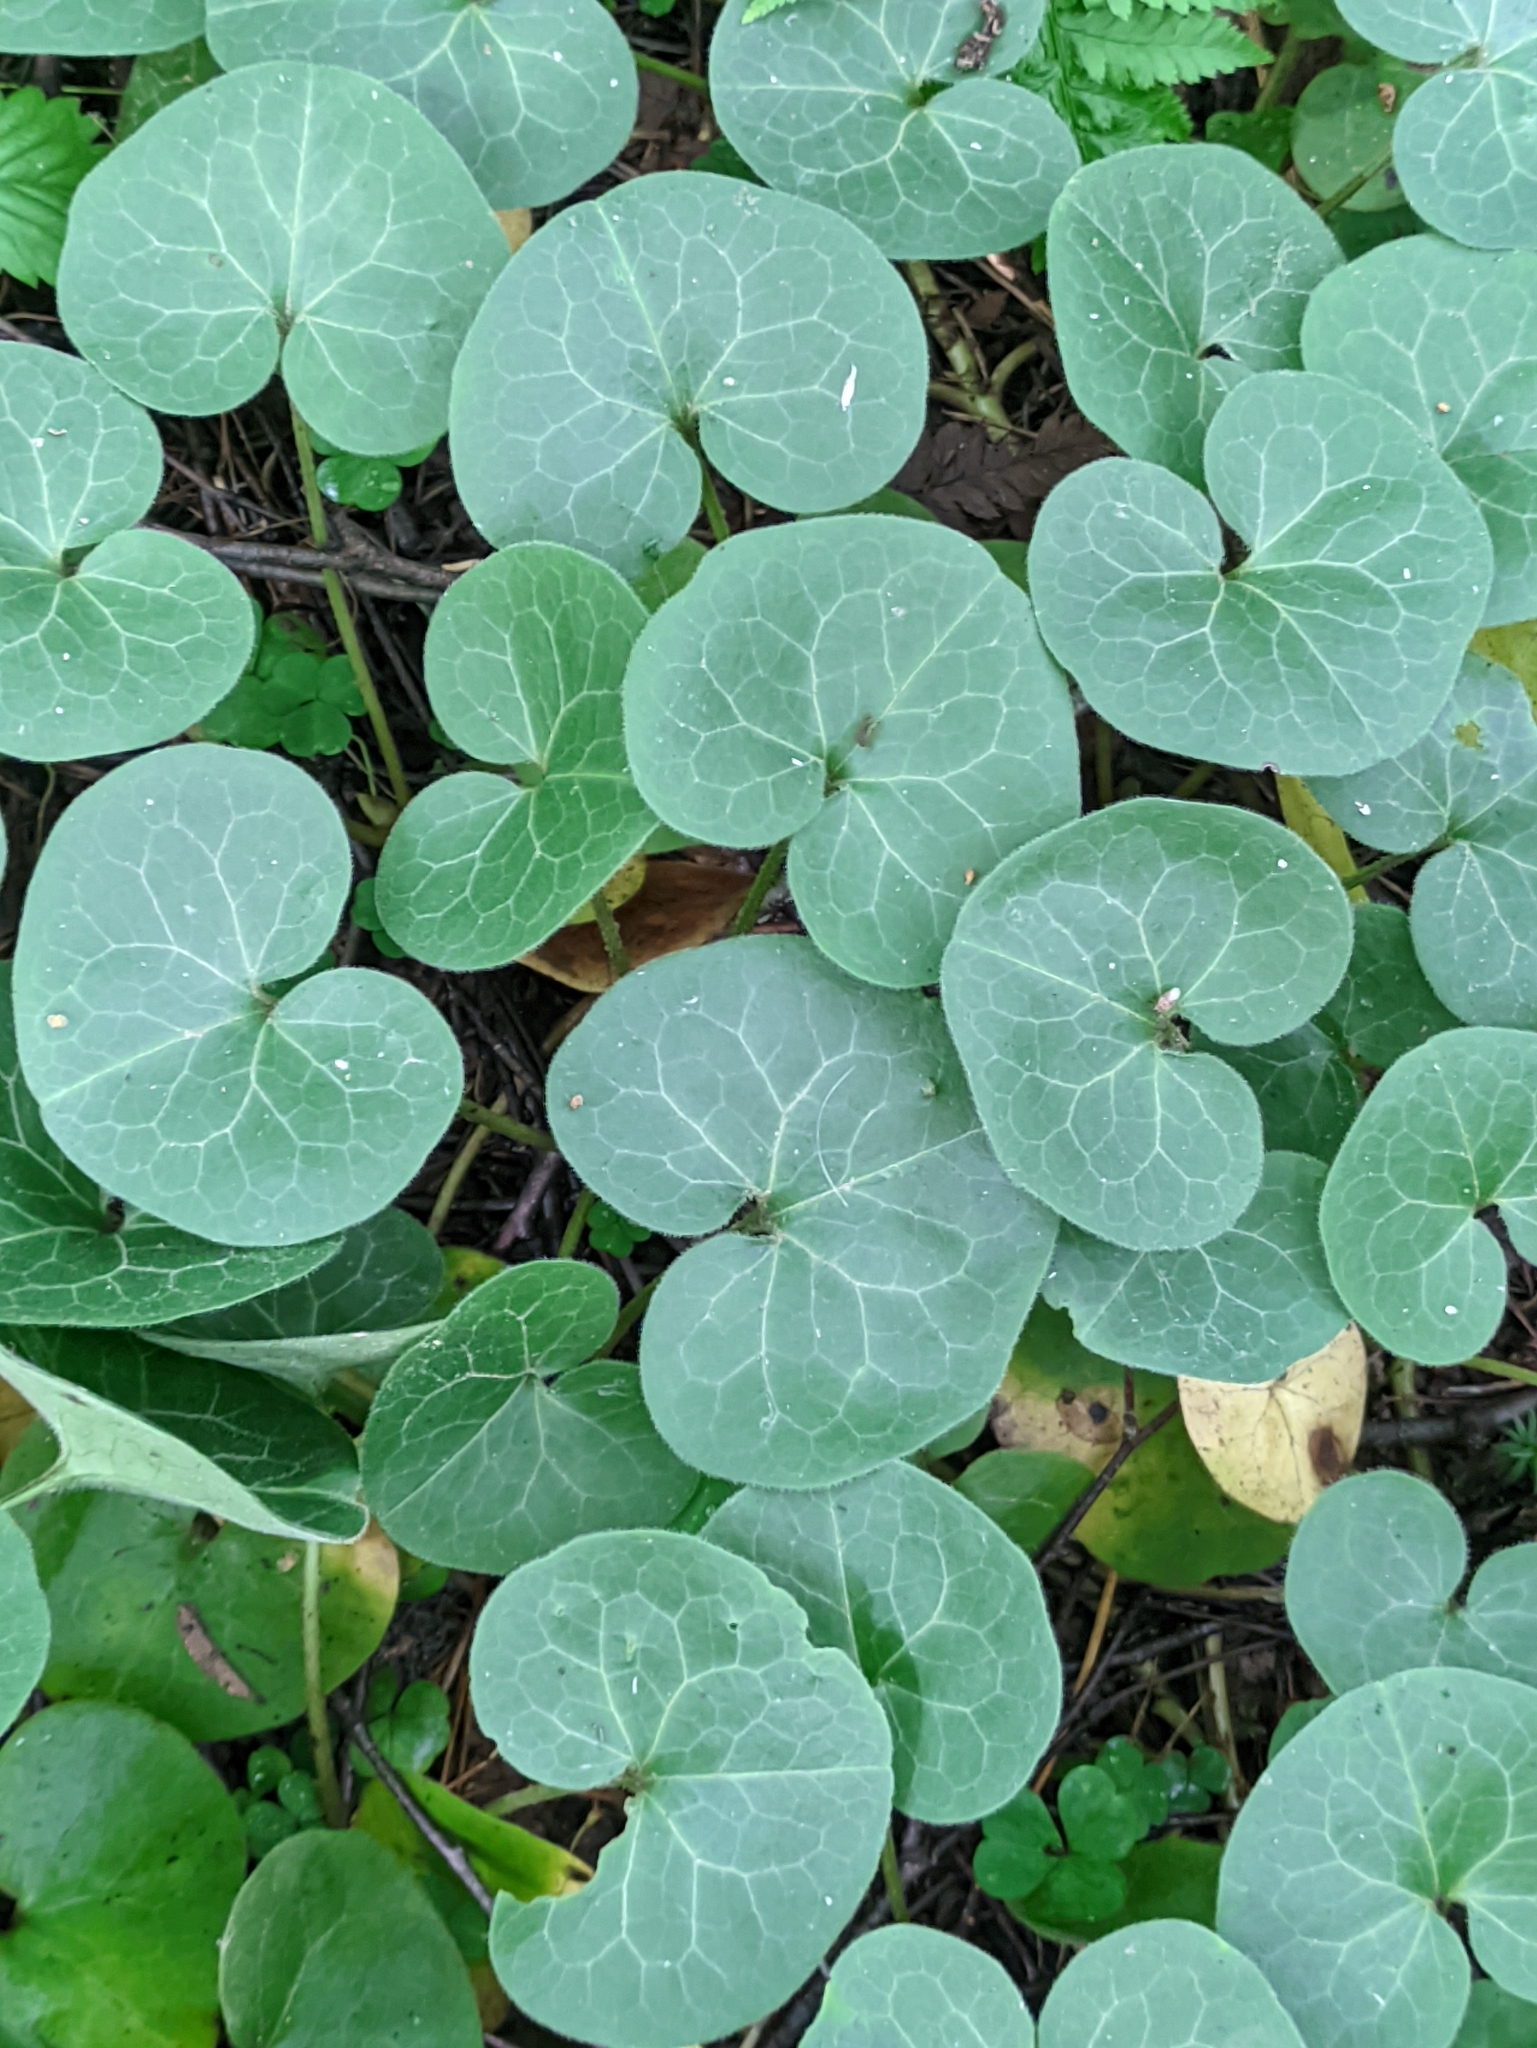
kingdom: Plantae
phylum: Tracheophyta
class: Magnoliopsida
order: Piperales
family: Aristolochiaceae
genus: Asarum
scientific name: Asarum europaeum
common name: Asarabacca
